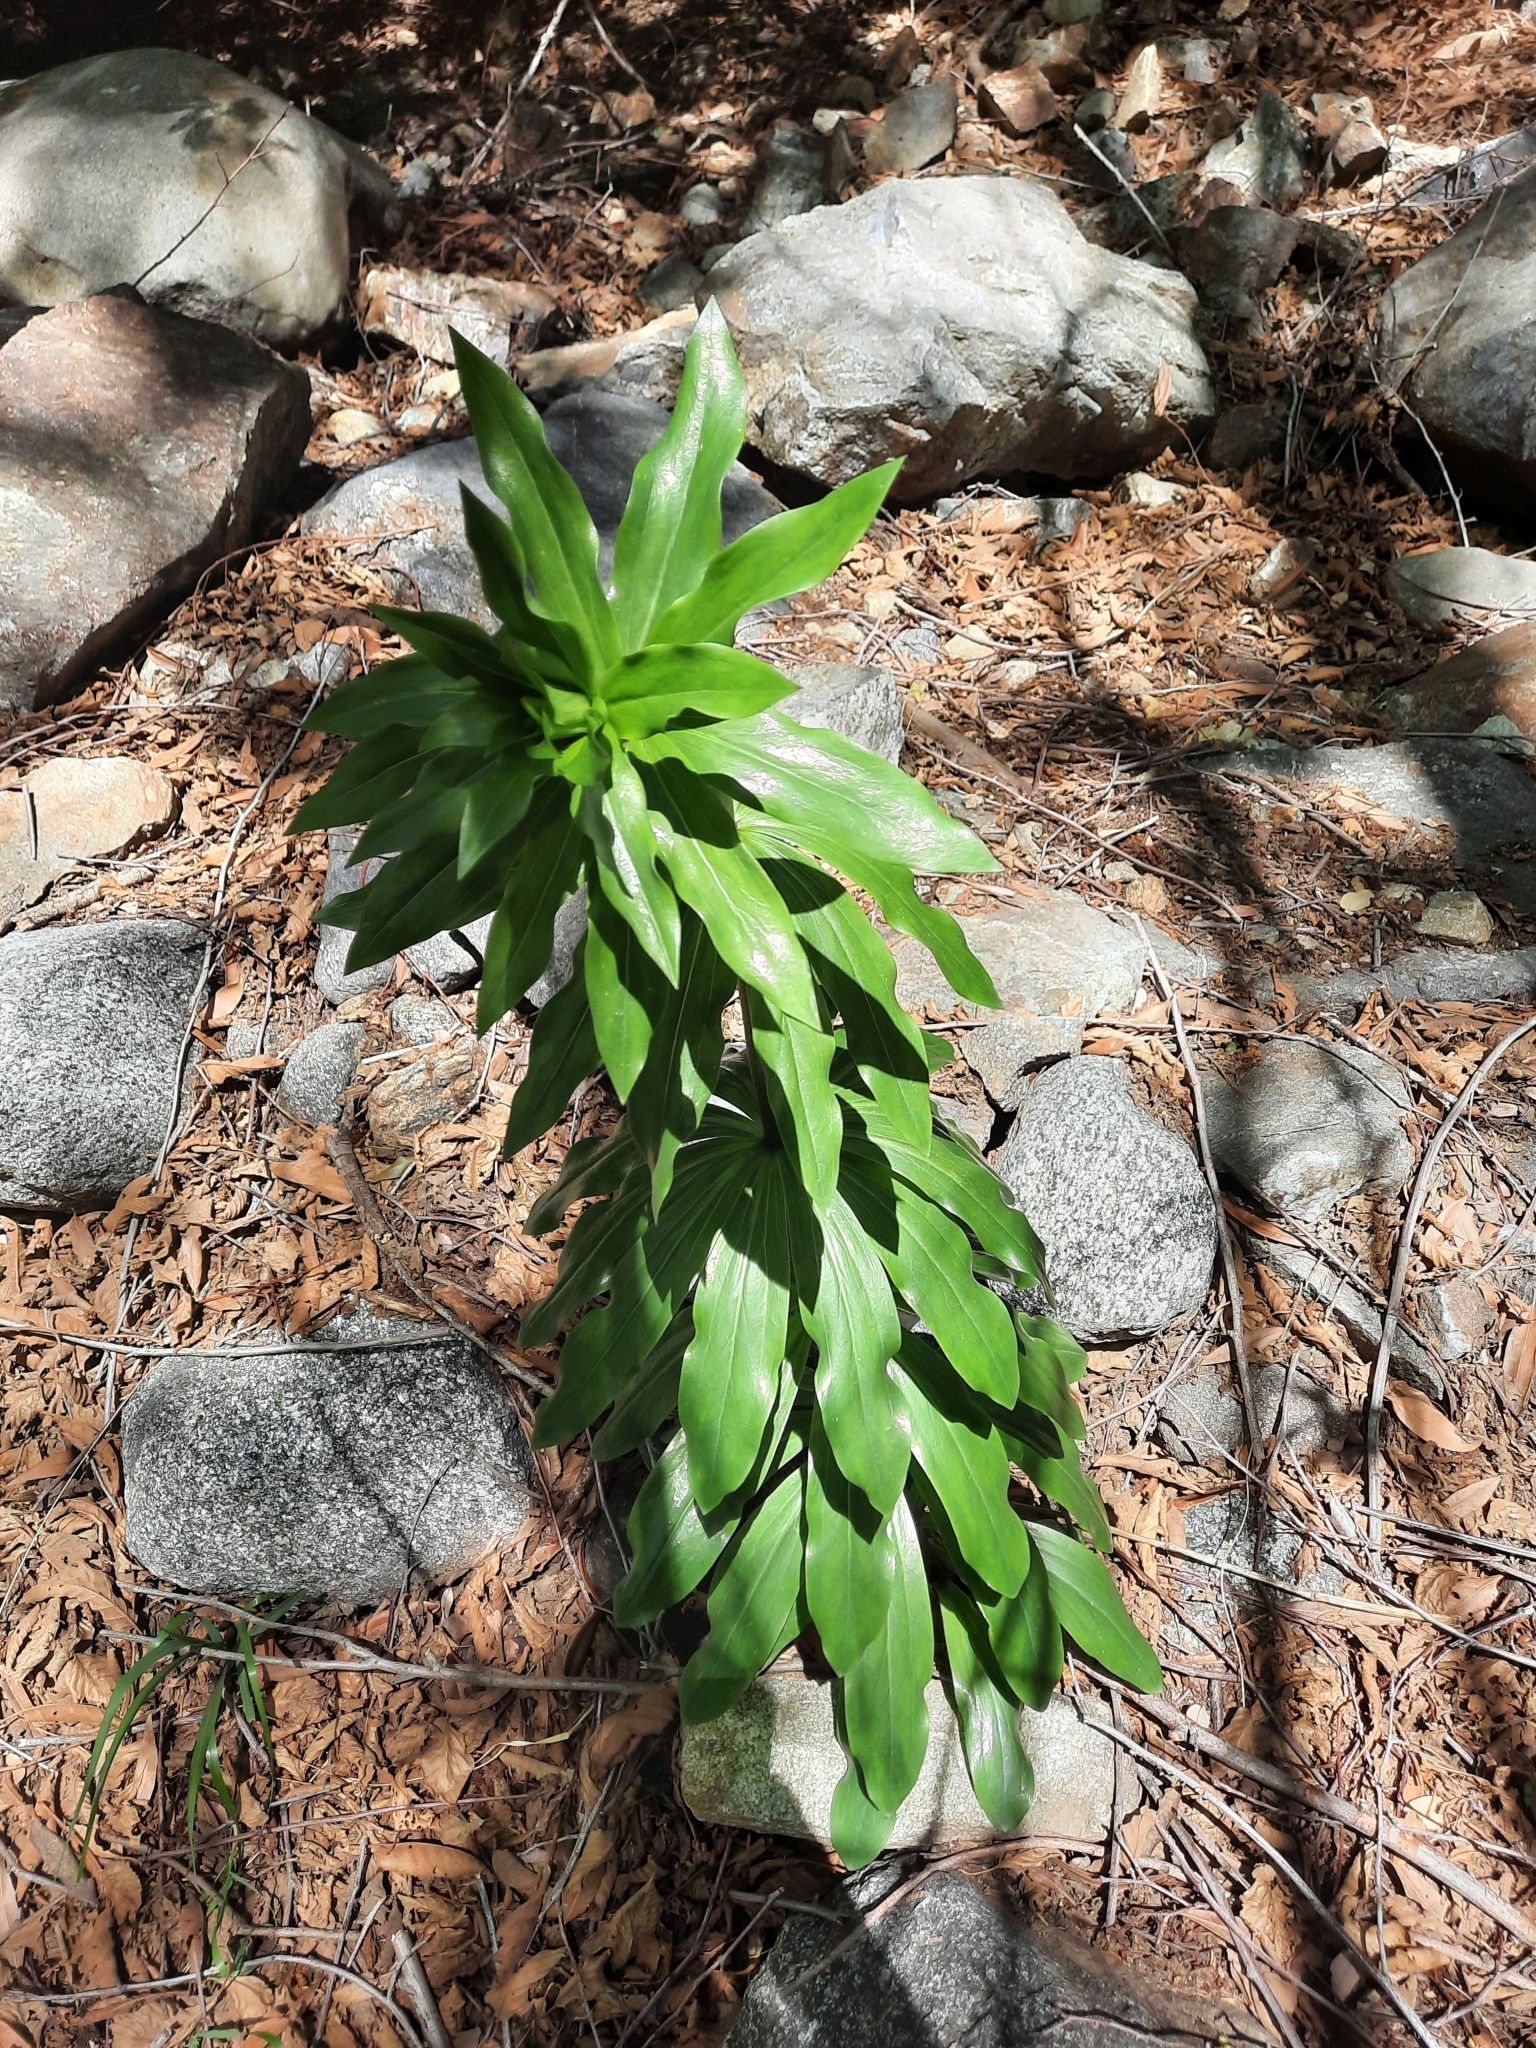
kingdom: Plantae
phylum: Tracheophyta
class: Liliopsida
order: Liliales
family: Liliaceae
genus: Lilium
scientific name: Lilium humboldtii
